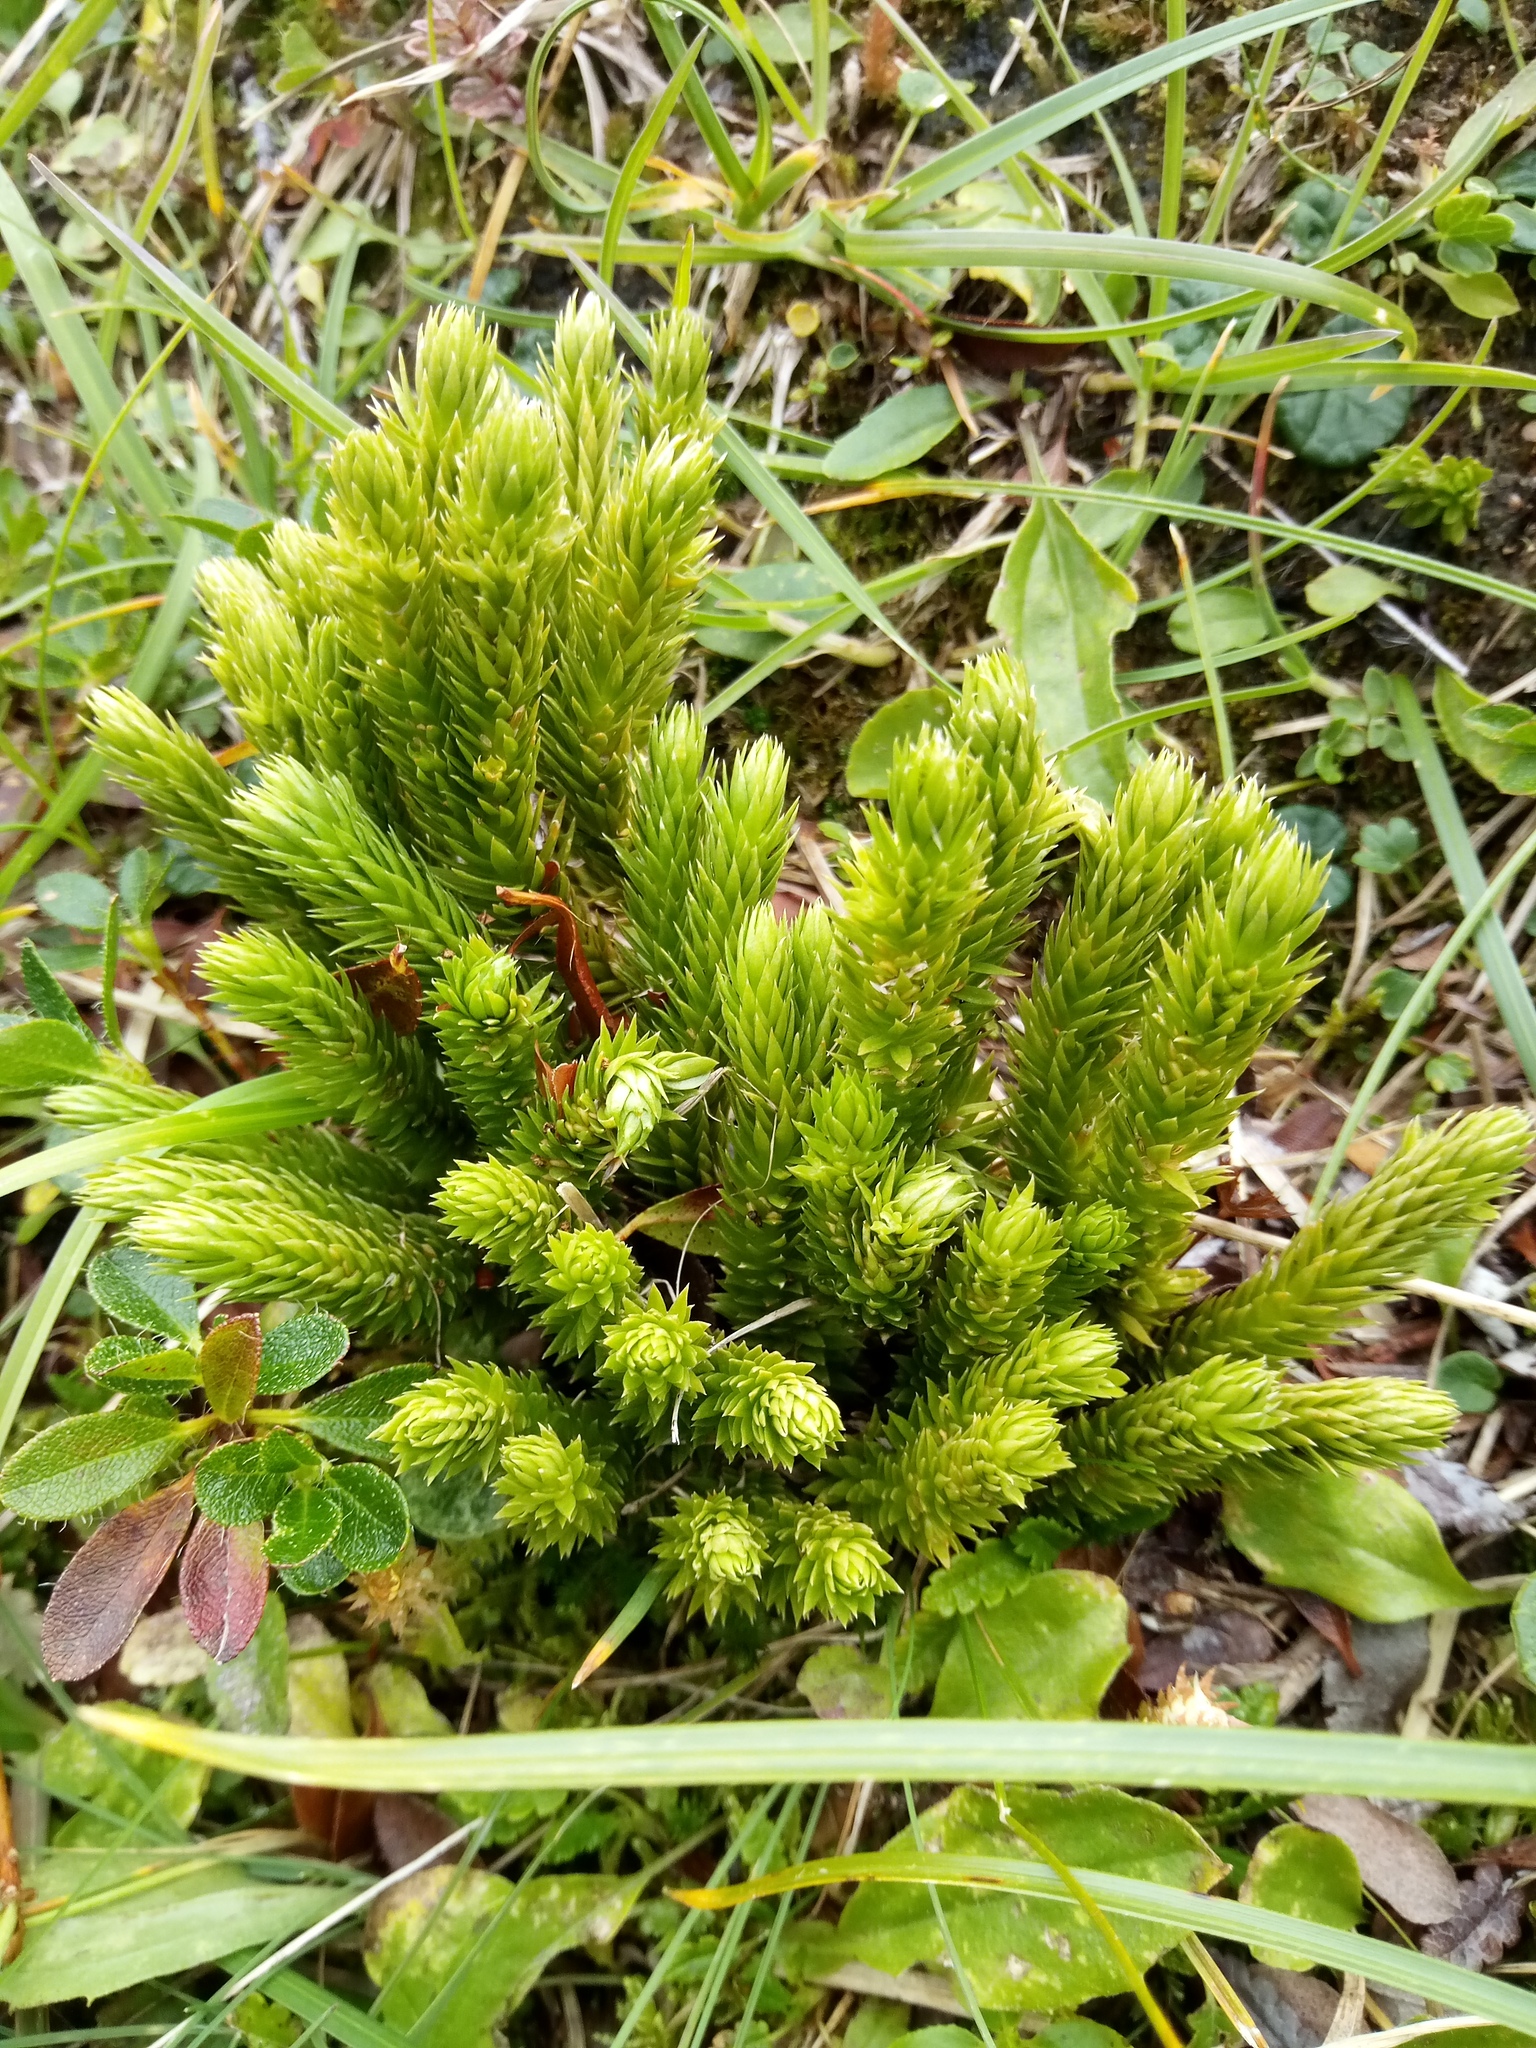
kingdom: Plantae
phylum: Tracheophyta
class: Lycopodiopsida
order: Lycopodiales
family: Lycopodiaceae
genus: Huperzia
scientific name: Huperzia selago
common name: Northern firmoss
